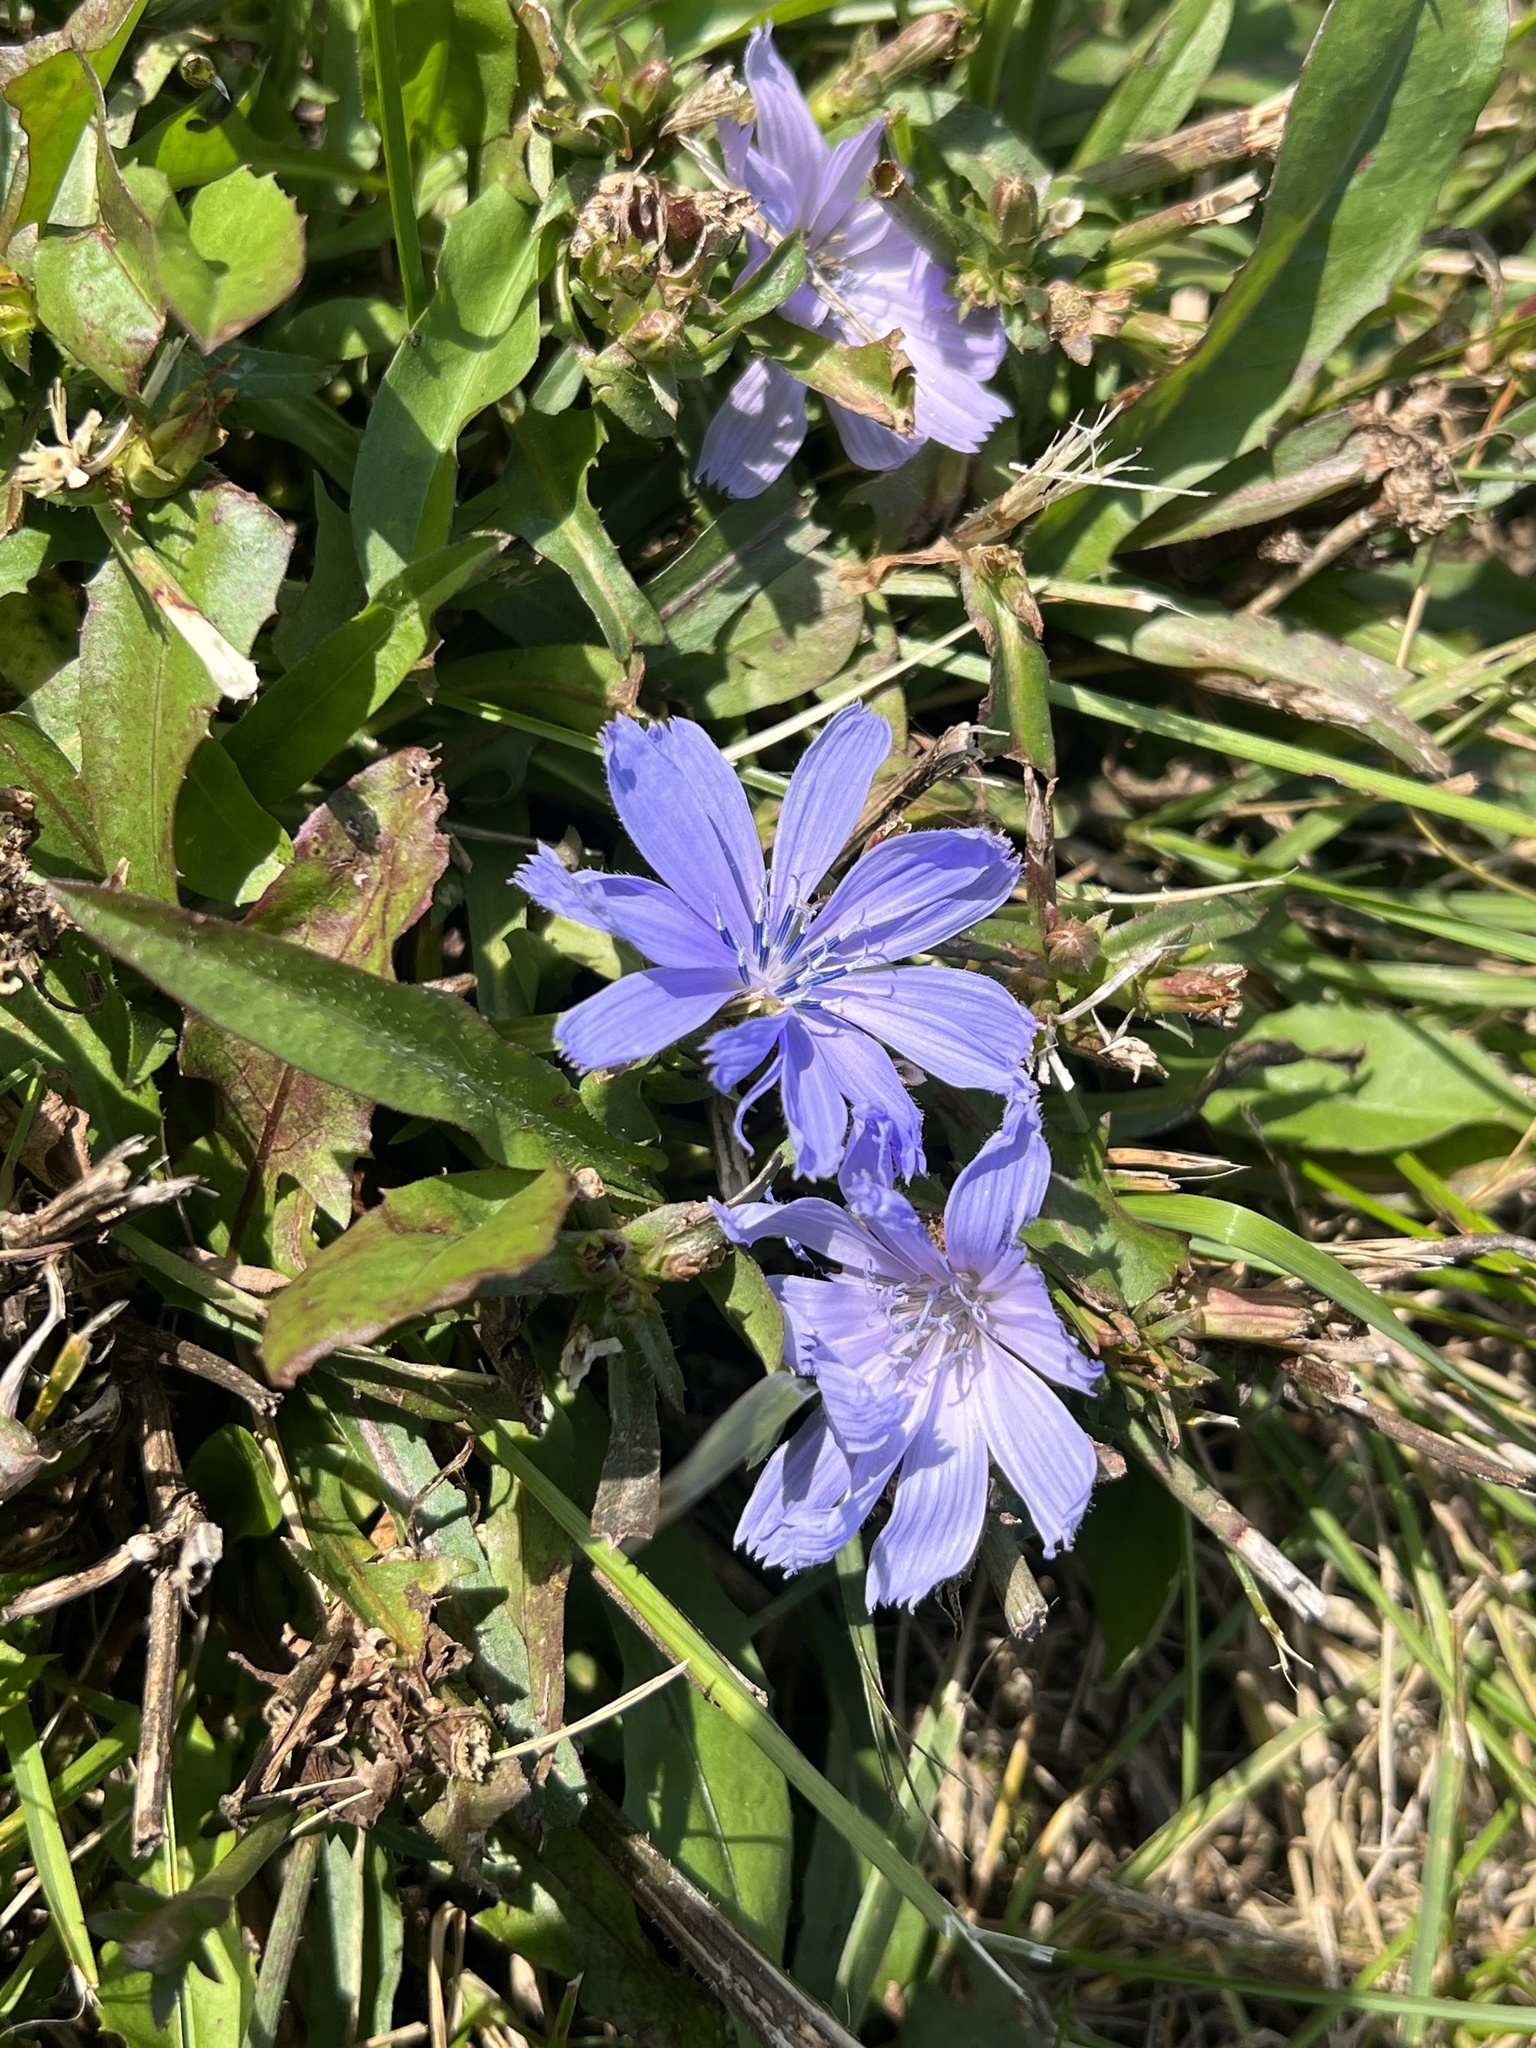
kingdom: Plantae
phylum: Tracheophyta
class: Magnoliopsida
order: Asterales
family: Asteraceae
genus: Cichorium
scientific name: Cichorium intybus
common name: Chicory
